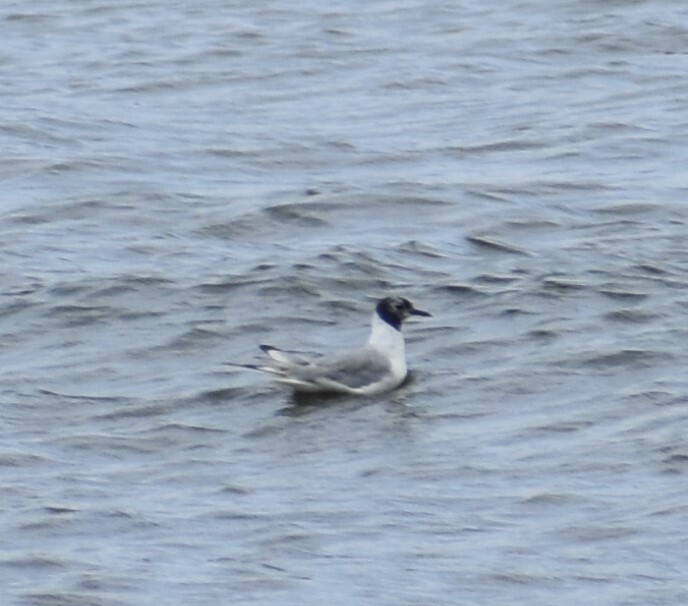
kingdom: Animalia
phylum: Chordata
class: Aves
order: Charadriiformes
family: Laridae
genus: Chroicocephalus
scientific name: Chroicocephalus philadelphia
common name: Bonaparte's gull
